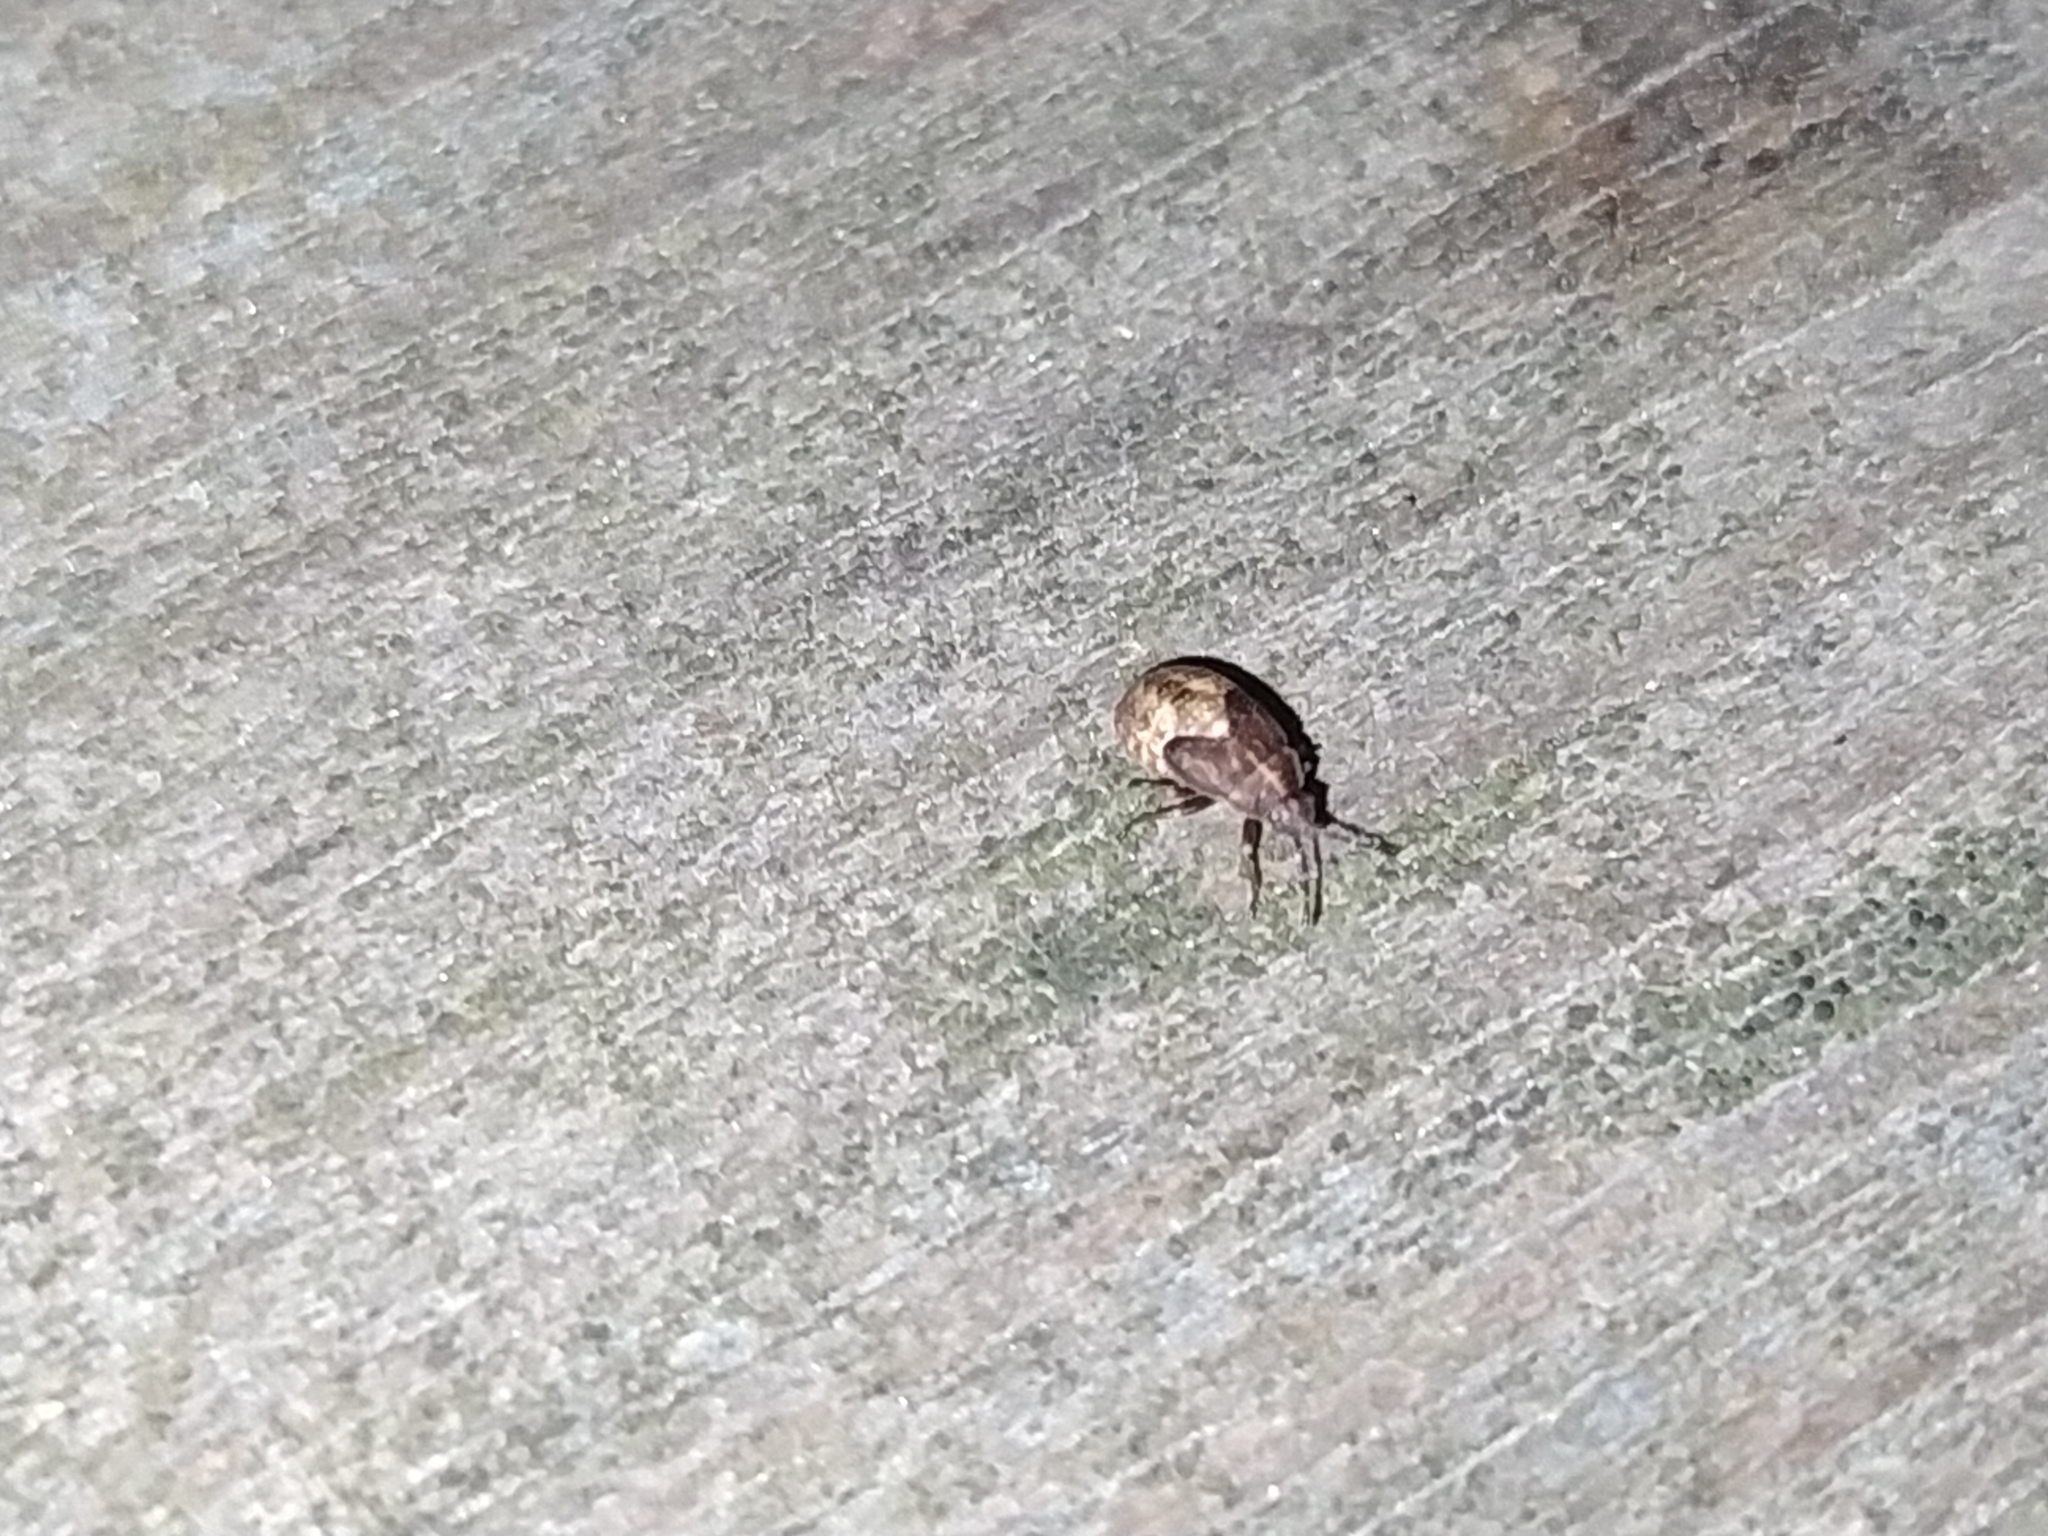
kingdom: Animalia
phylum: Arthropoda
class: Insecta
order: Hemiptera
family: Lygaeidae
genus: Kleidocerys
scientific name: Kleidocerys resedae
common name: Birch catkin bug
